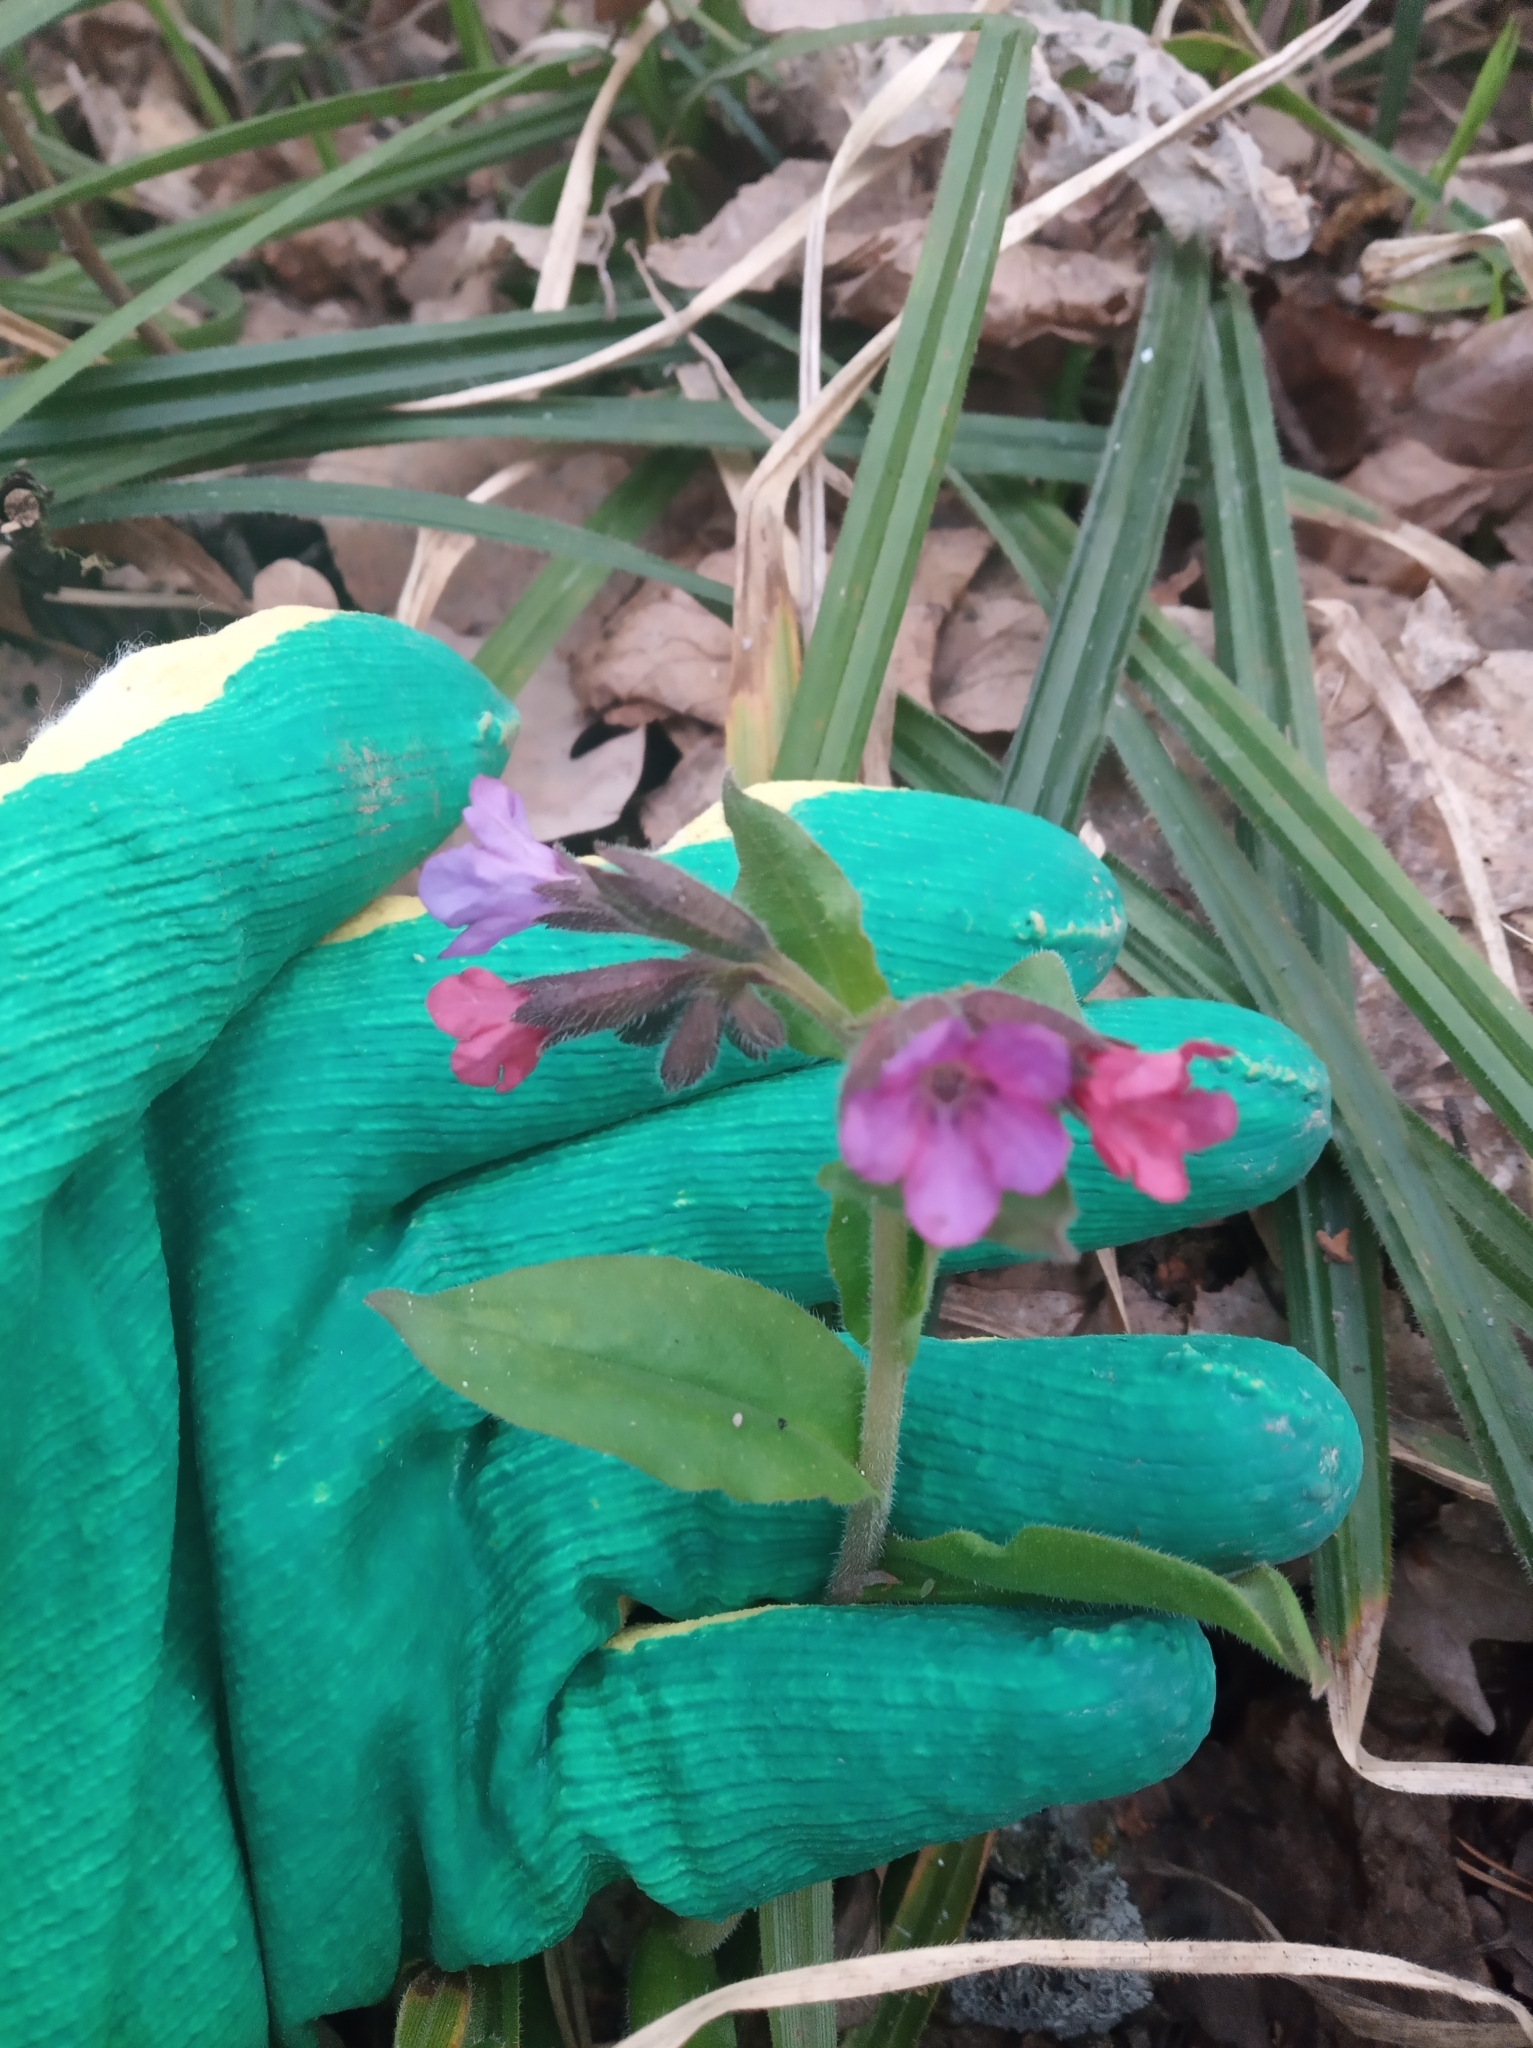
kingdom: Plantae
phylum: Tracheophyta
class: Magnoliopsida
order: Boraginales
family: Boraginaceae
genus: Pulmonaria
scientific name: Pulmonaria obscura
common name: Suffolk lungwort
